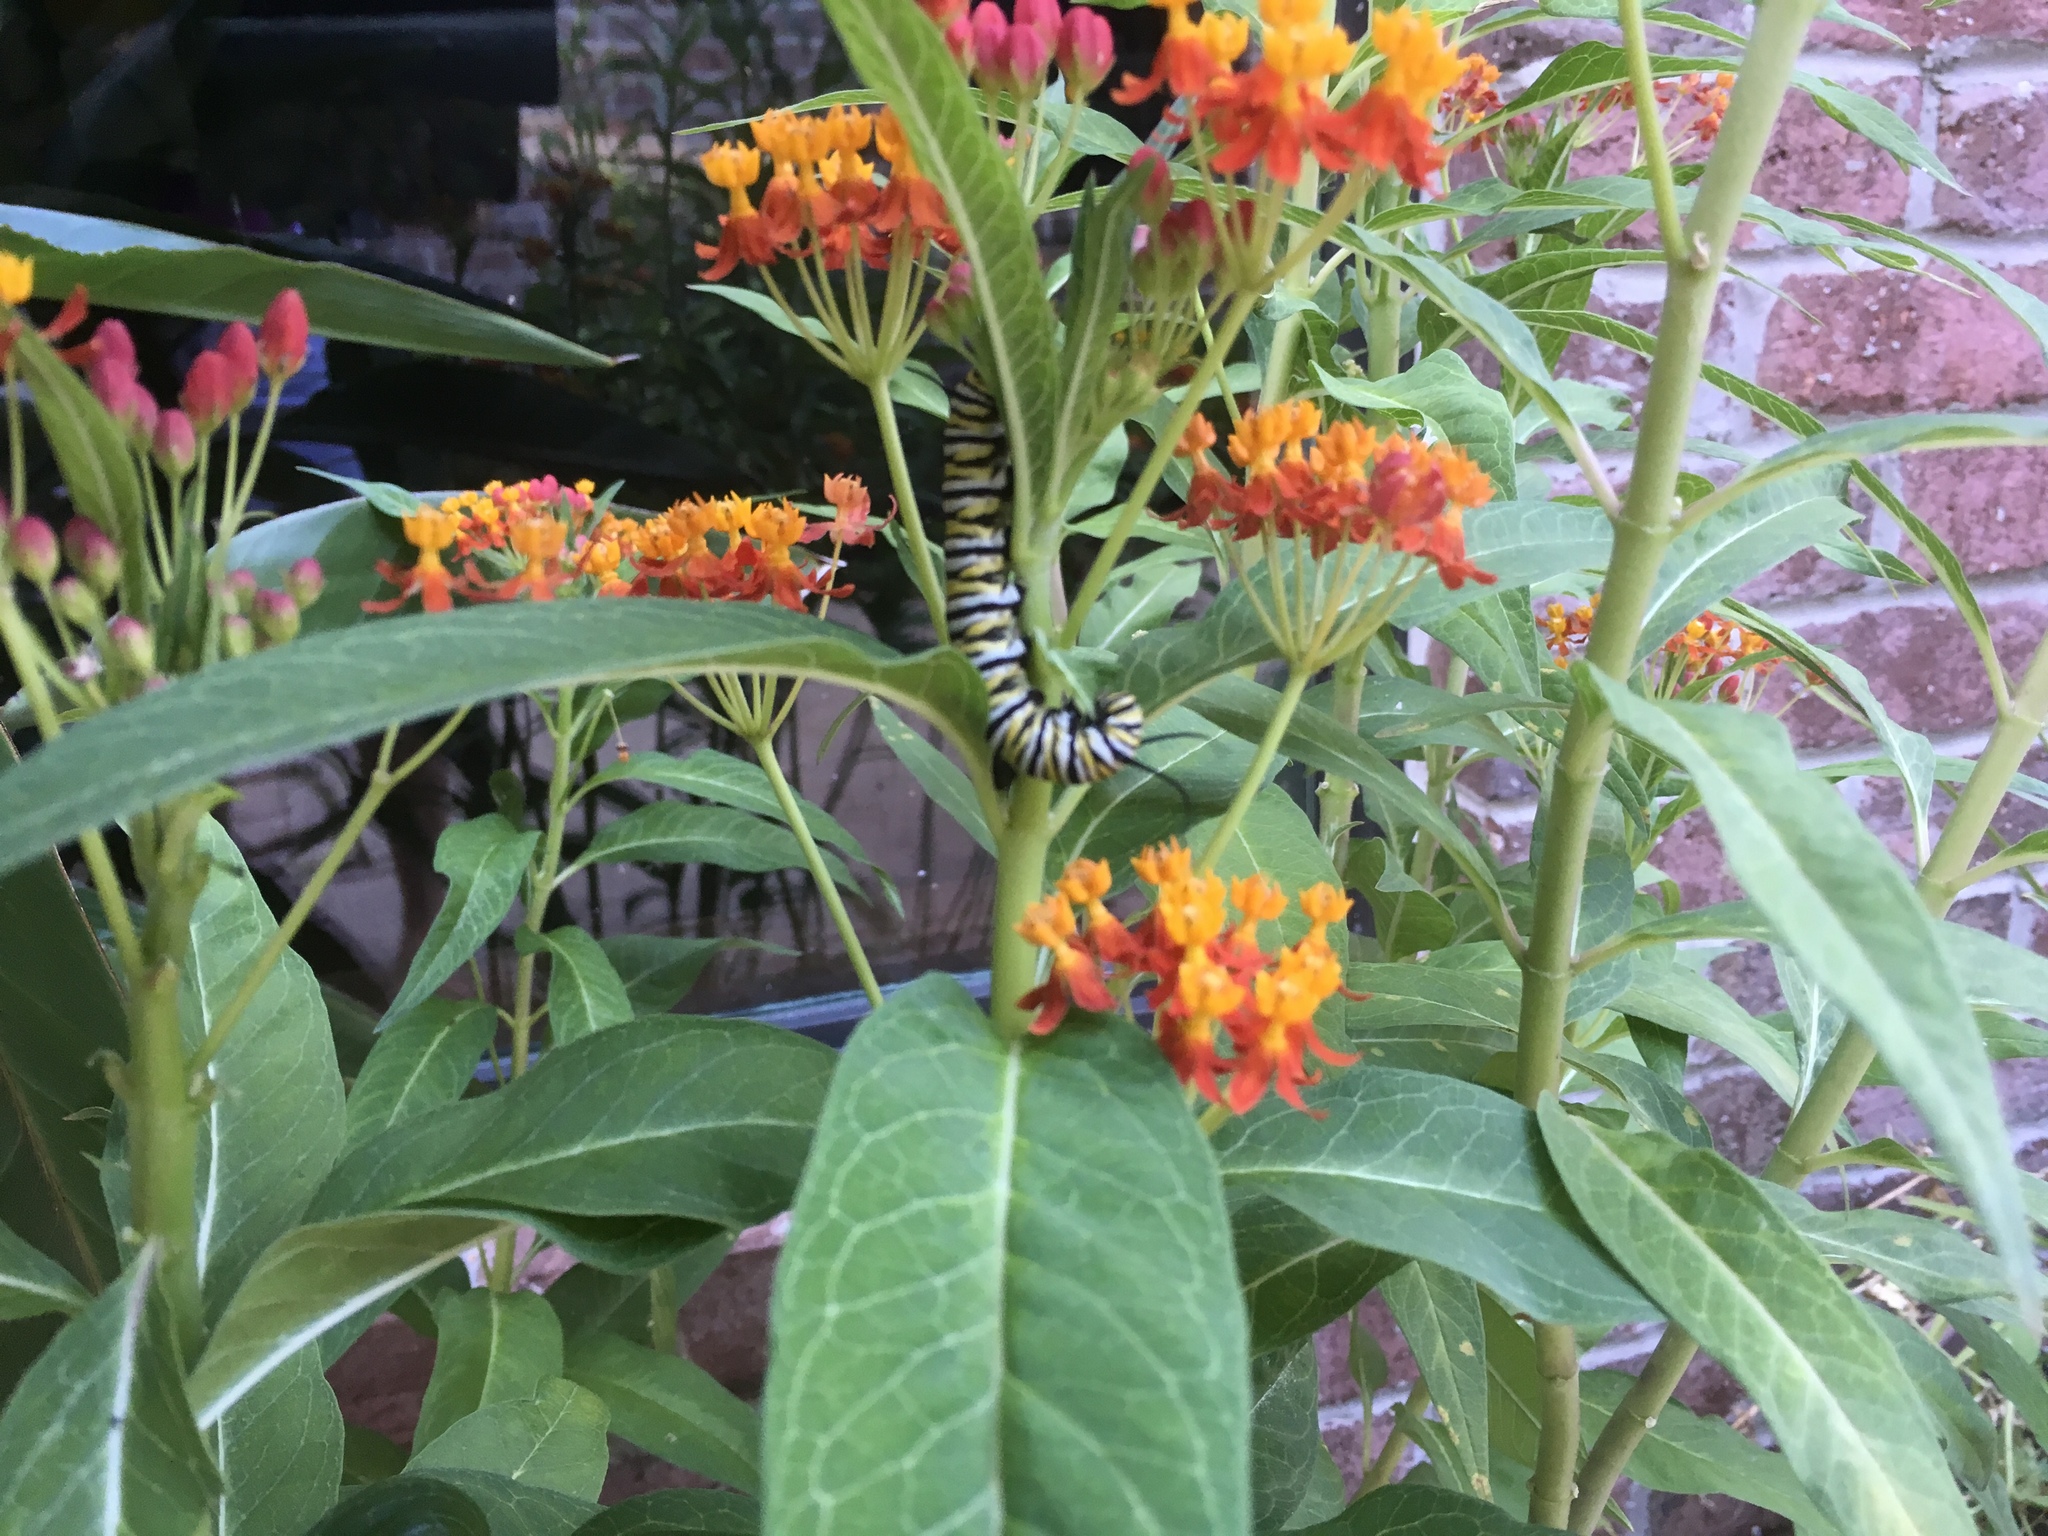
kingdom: Animalia
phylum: Arthropoda
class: Insecta
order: Lepidoptera
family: Nymphalidae
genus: Danaus
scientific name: Danaus plexippus
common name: Monarch
